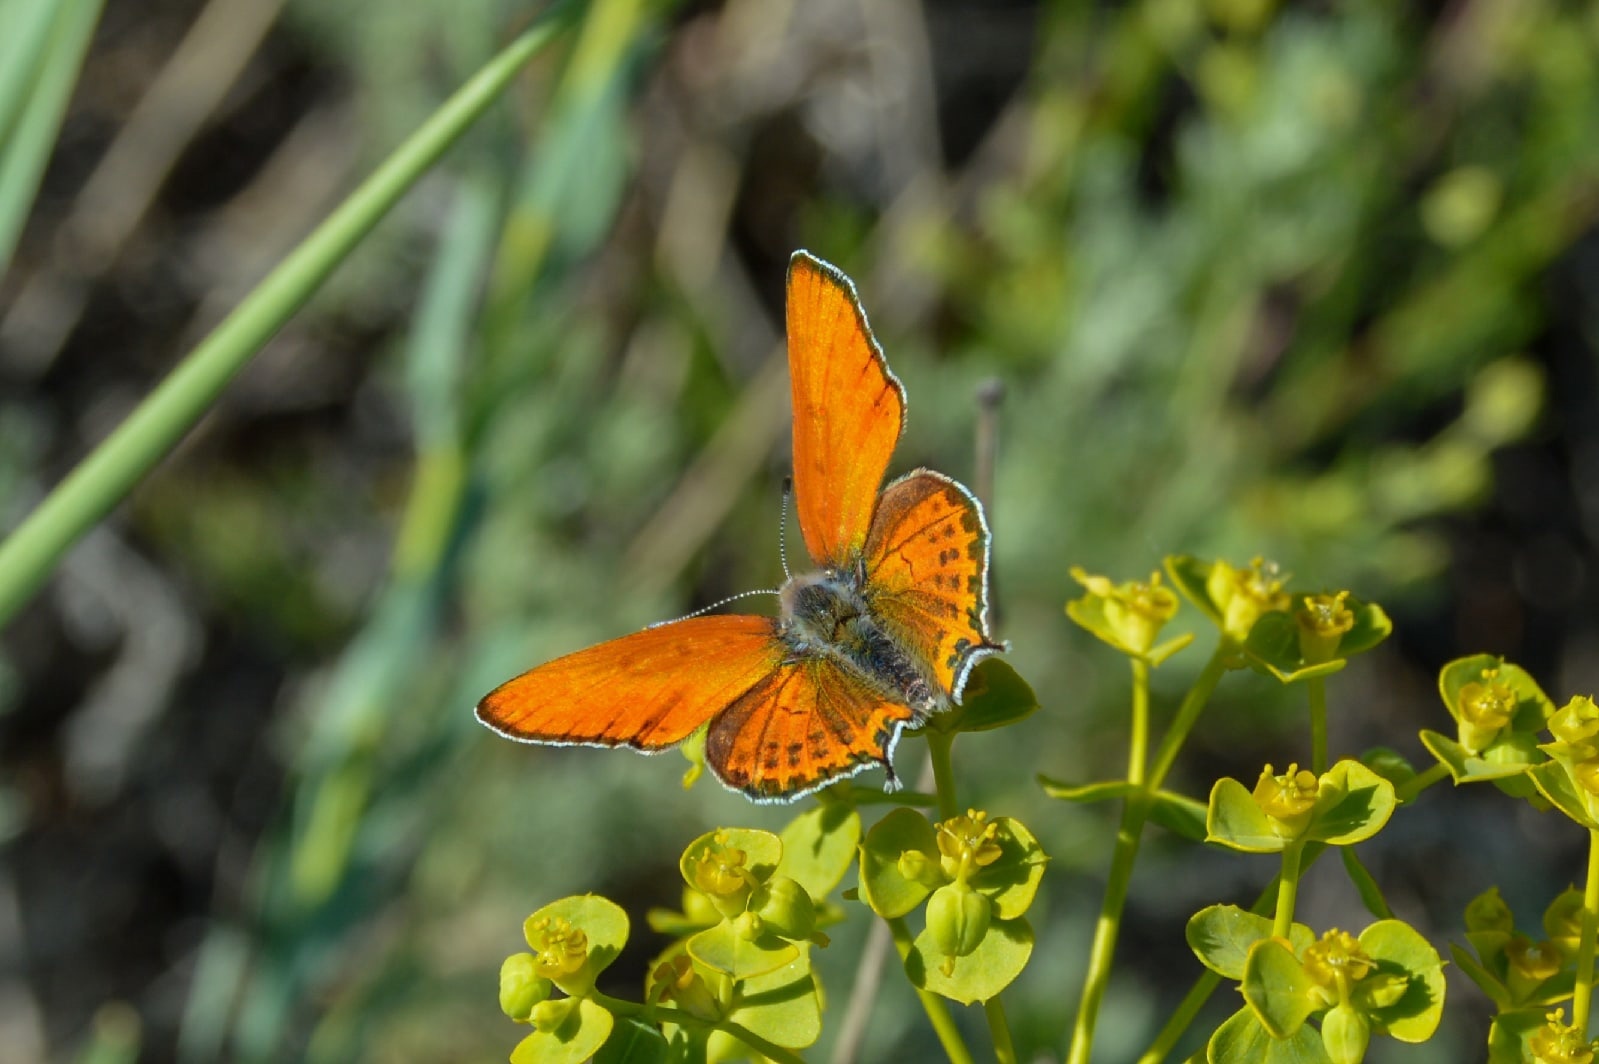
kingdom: Animalia
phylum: Arthropoda
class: Insecta
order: Lepidoptera
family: Lycaenidae
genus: Thersamonia
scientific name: Thersamonia thersamon
